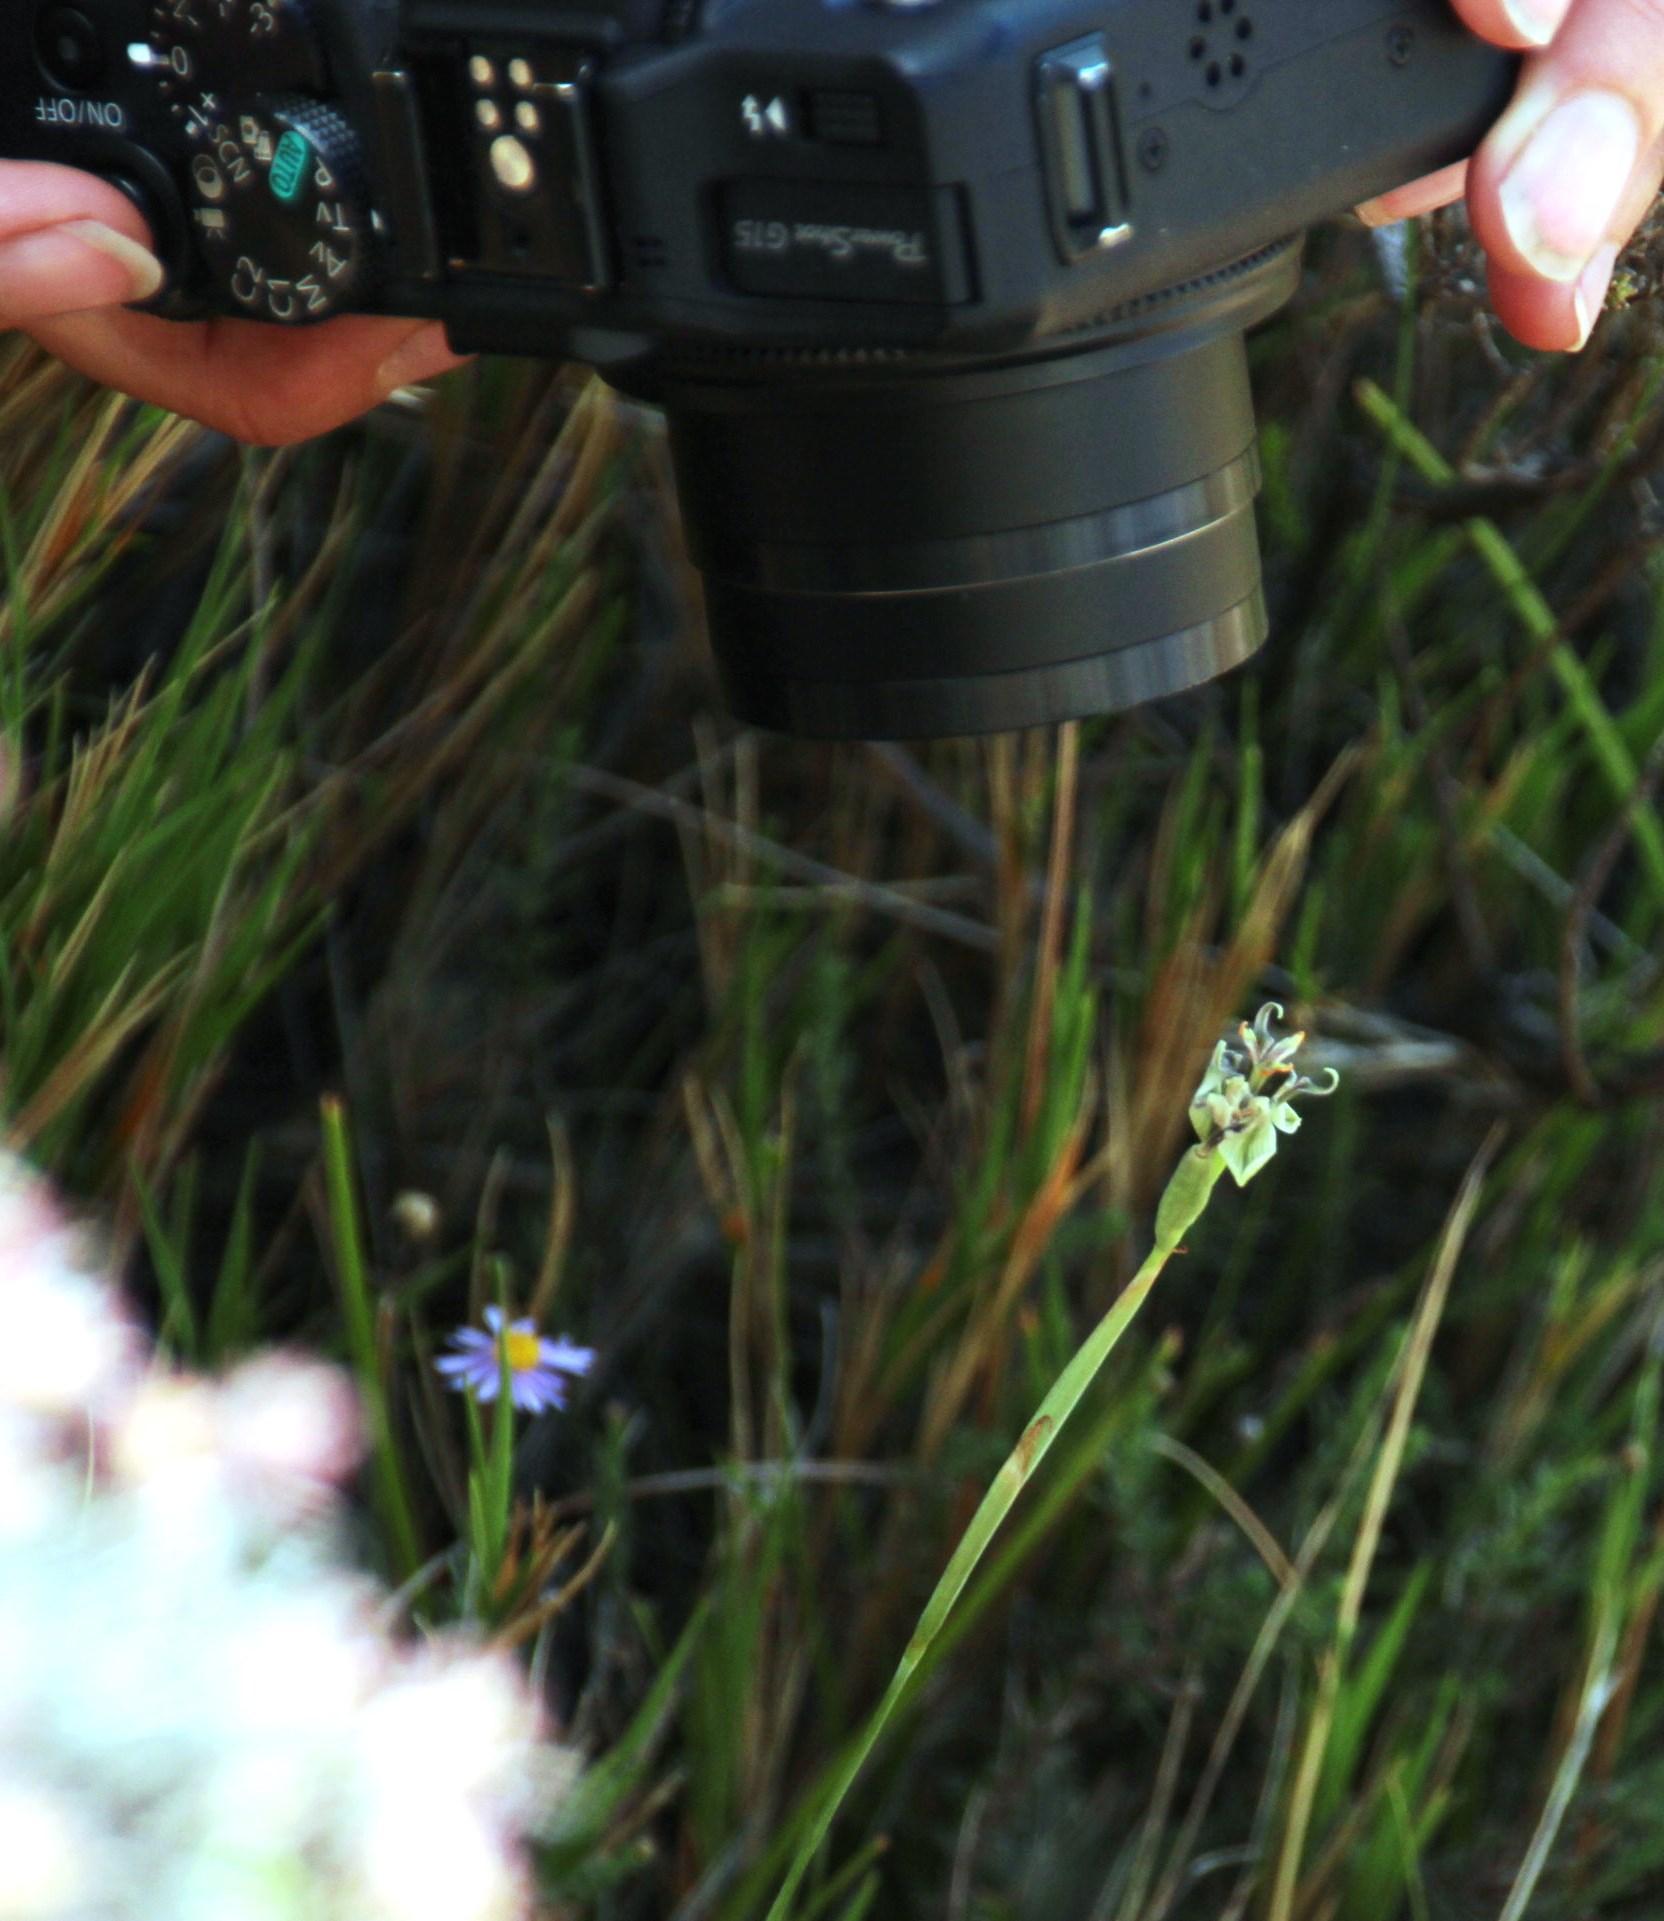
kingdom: Plantae
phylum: Tracheophyta
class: Liliopsida
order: Asparagales
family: Iridaceae
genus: Moraea
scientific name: Moraea unguiculata
